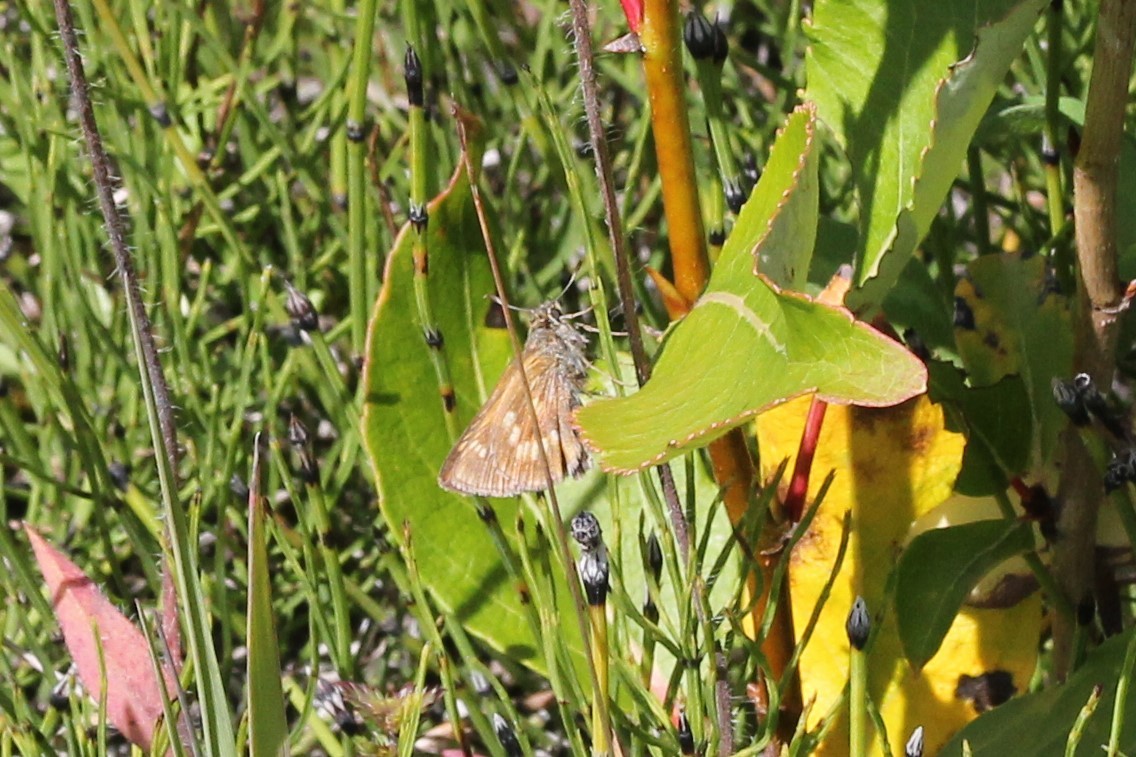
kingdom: Animalia
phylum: Arthropoda
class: Insecta
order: Lepidoptera
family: Hesperiidae
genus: Polites
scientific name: Polites mystic
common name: Long dash
